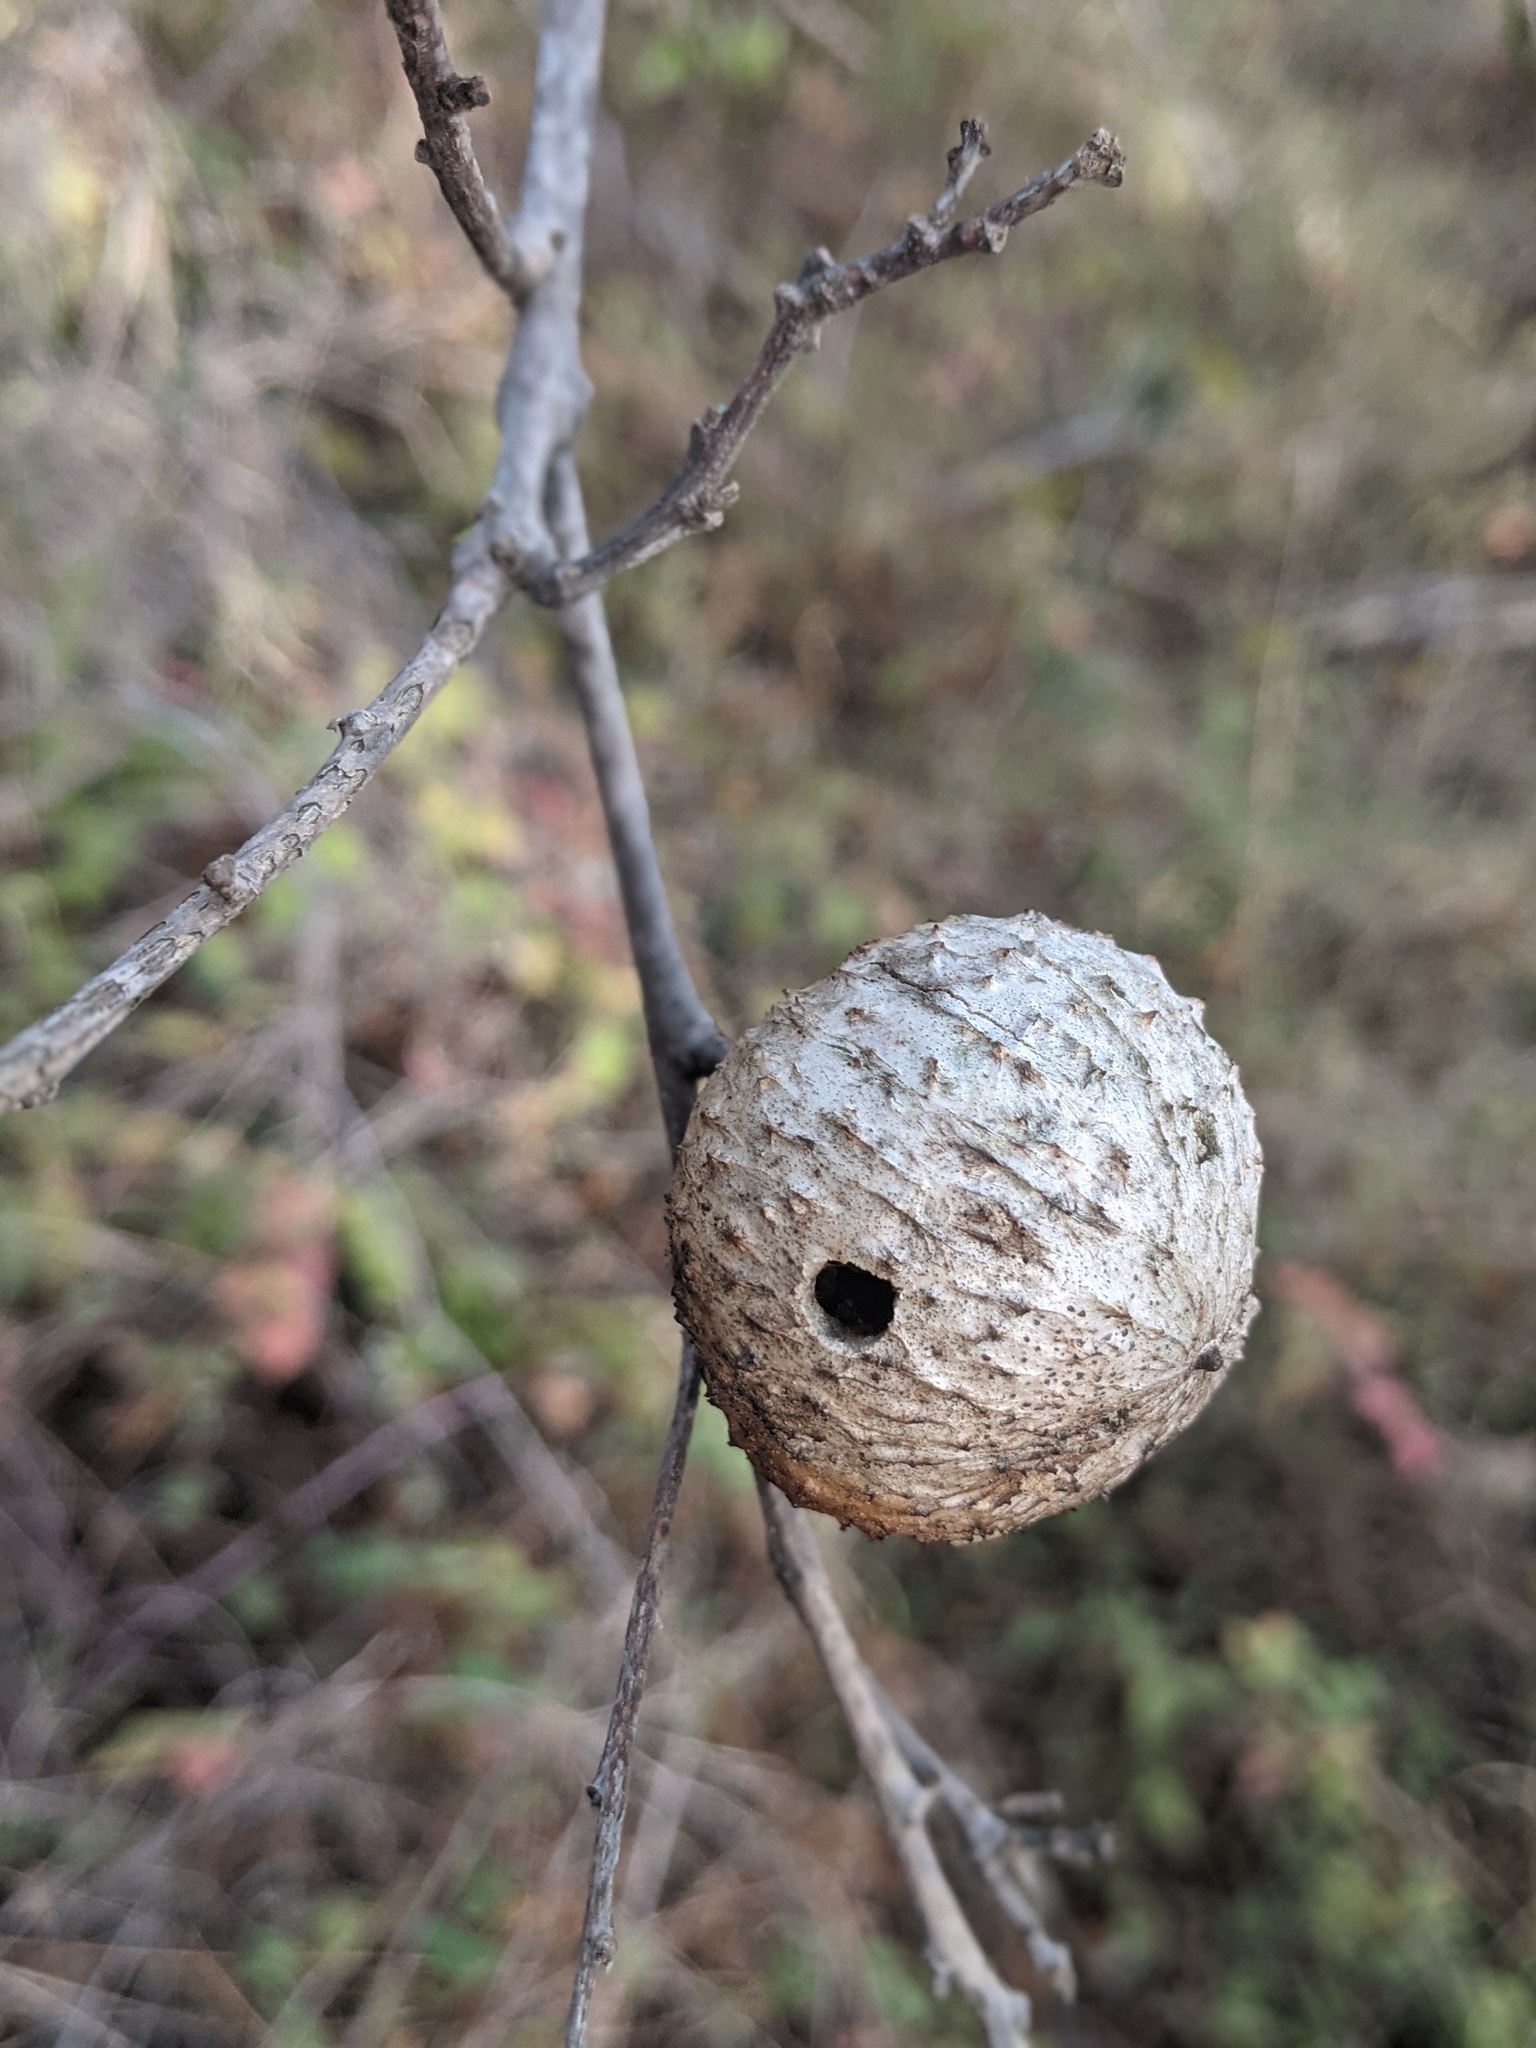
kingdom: Animalia
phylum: Arthropoda
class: Insecta
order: Hymenoptera
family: Cynipidae
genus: Amphibolips
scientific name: Amphibolips quercuspomiformis
